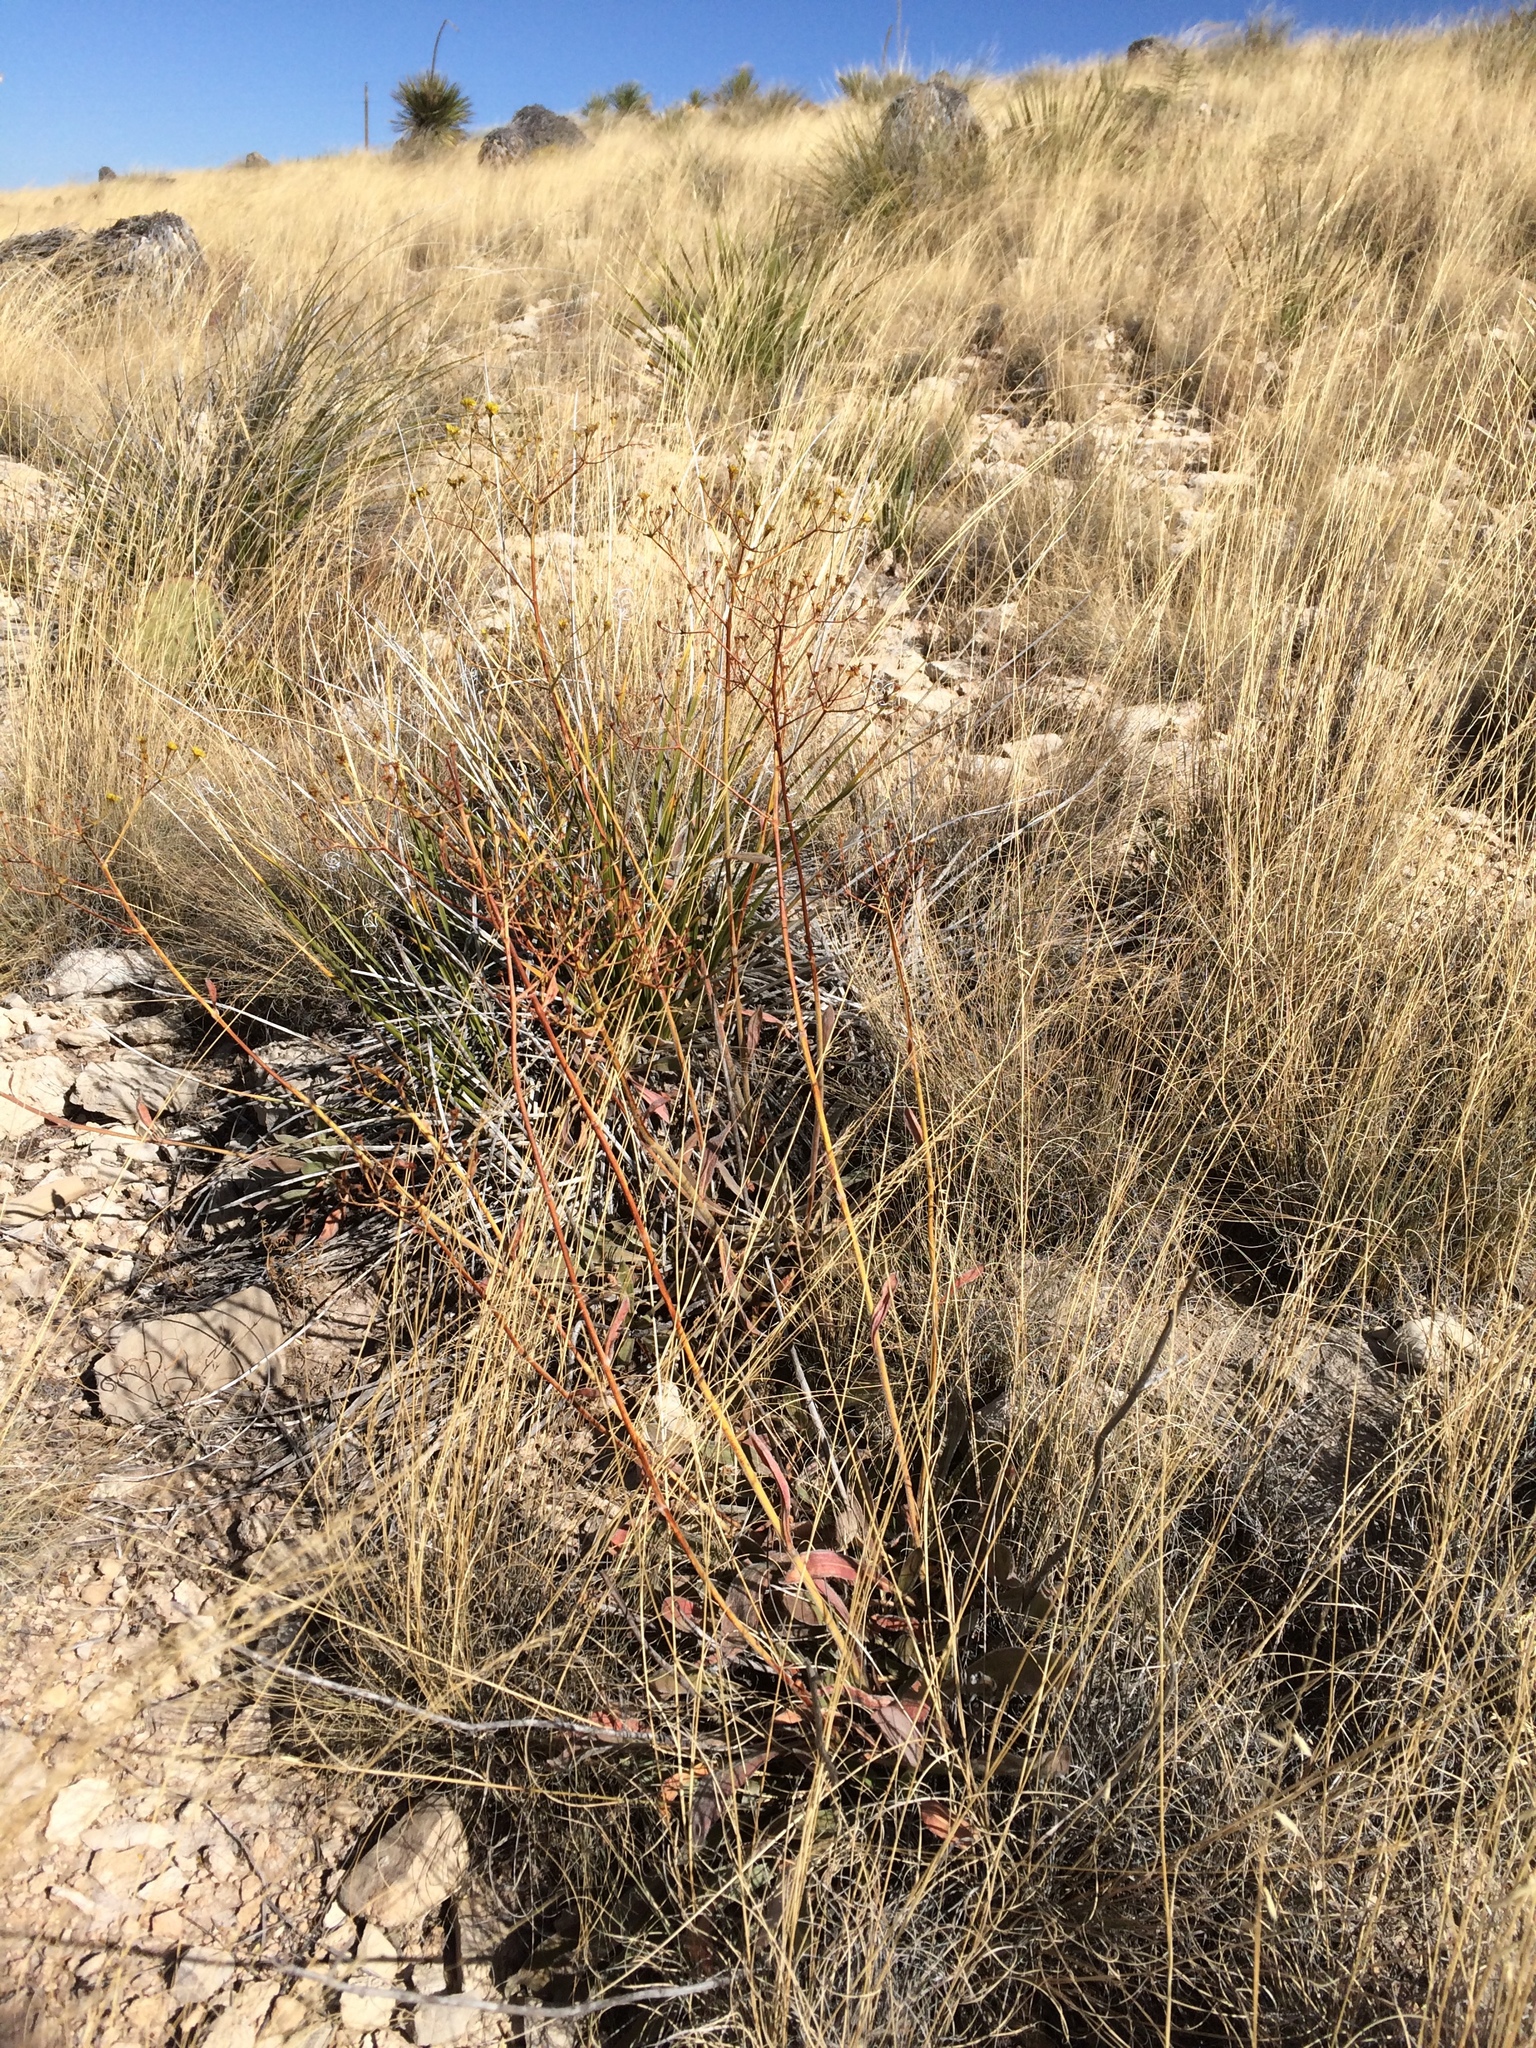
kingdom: Plantae
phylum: Tracheophyta
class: Magnoliopsida
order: Caryophyllales
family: Polygonaceae
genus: Eriogonum
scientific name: Eriogonum hieraciifolium
